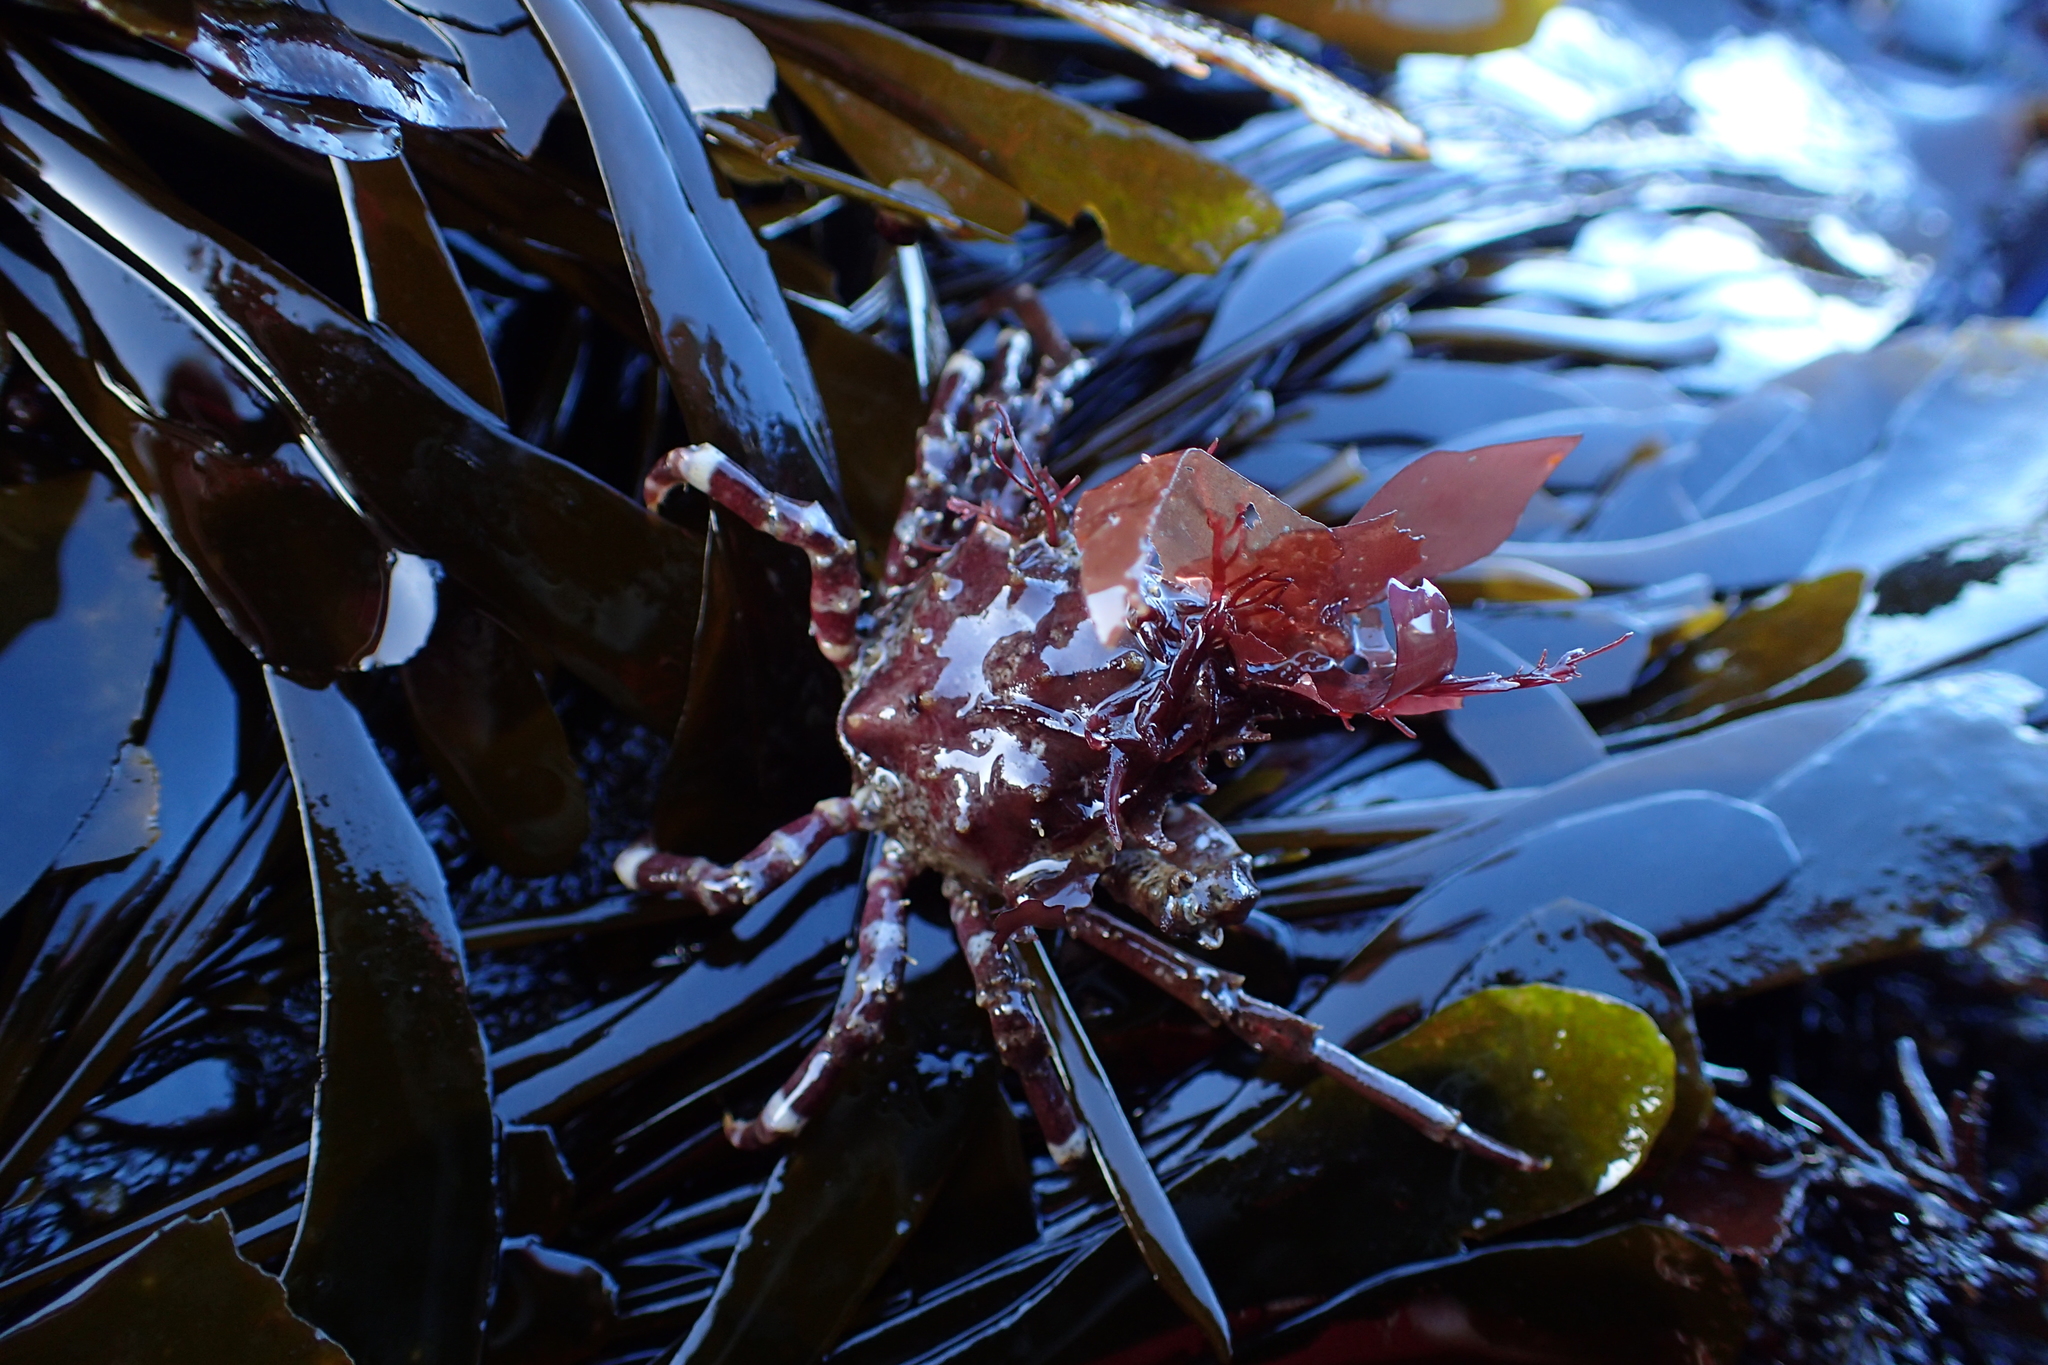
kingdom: Animalia
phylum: Arthropoda
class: Malacostraca
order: Decapoda
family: Epialtidae
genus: Pugettia
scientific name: Pugettia richii
